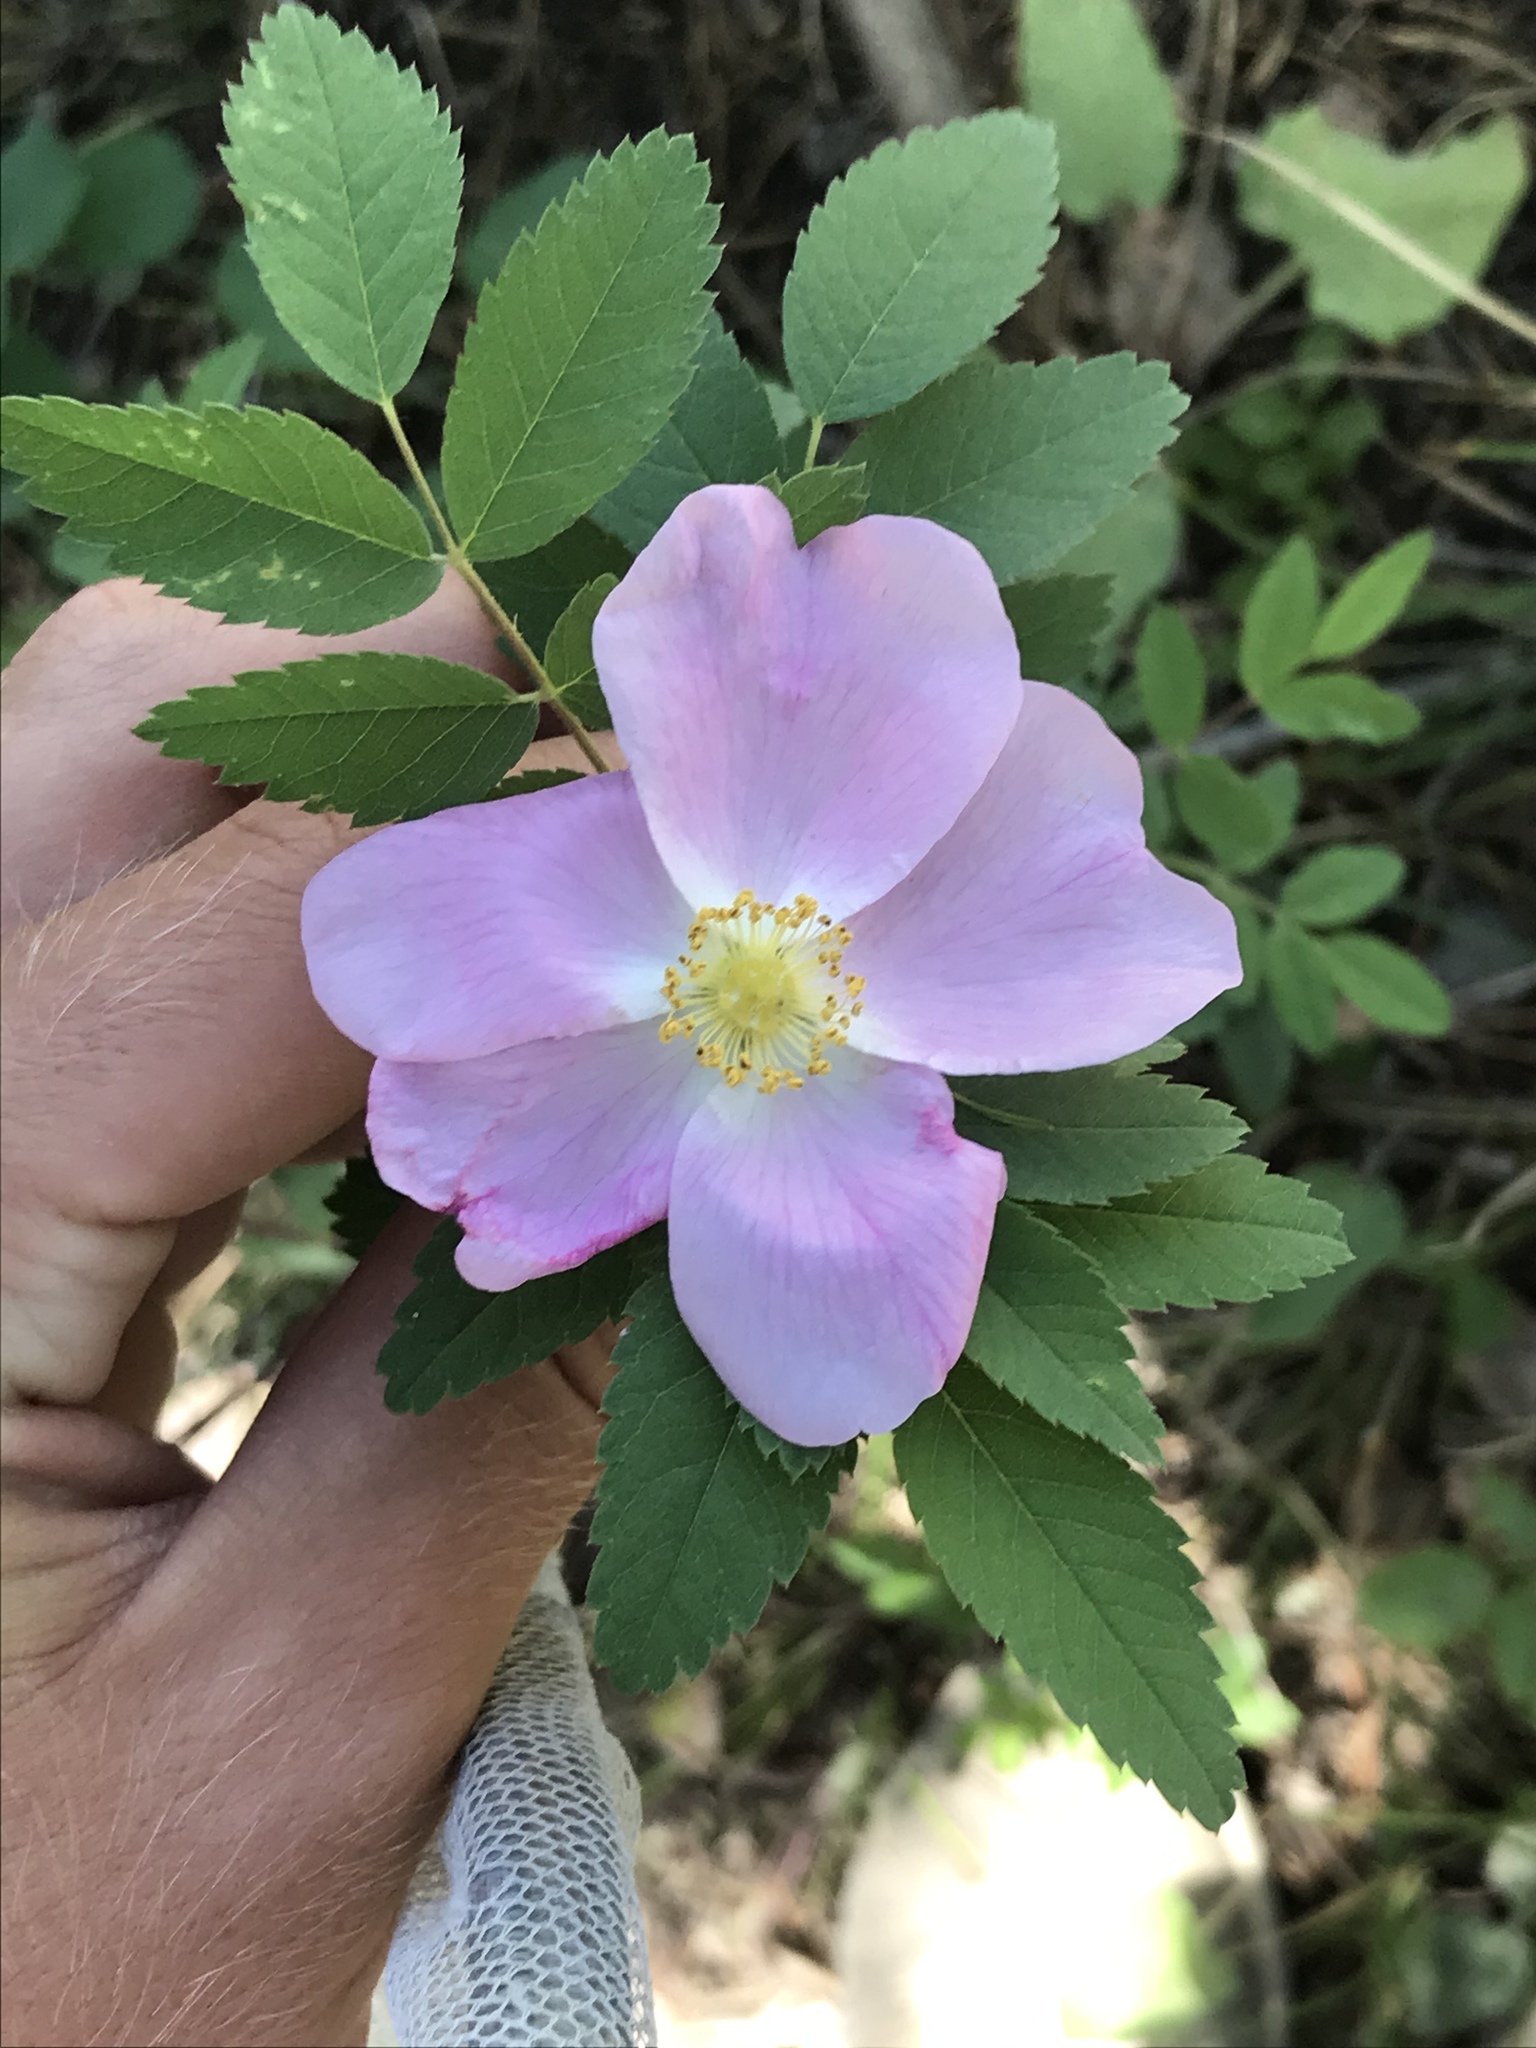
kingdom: Plantae
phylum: Tracheophyta
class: Magnoliopsida
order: Rosales
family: Rosaceae
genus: Rosa
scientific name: Rosa woodsii
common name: Woods's rose
